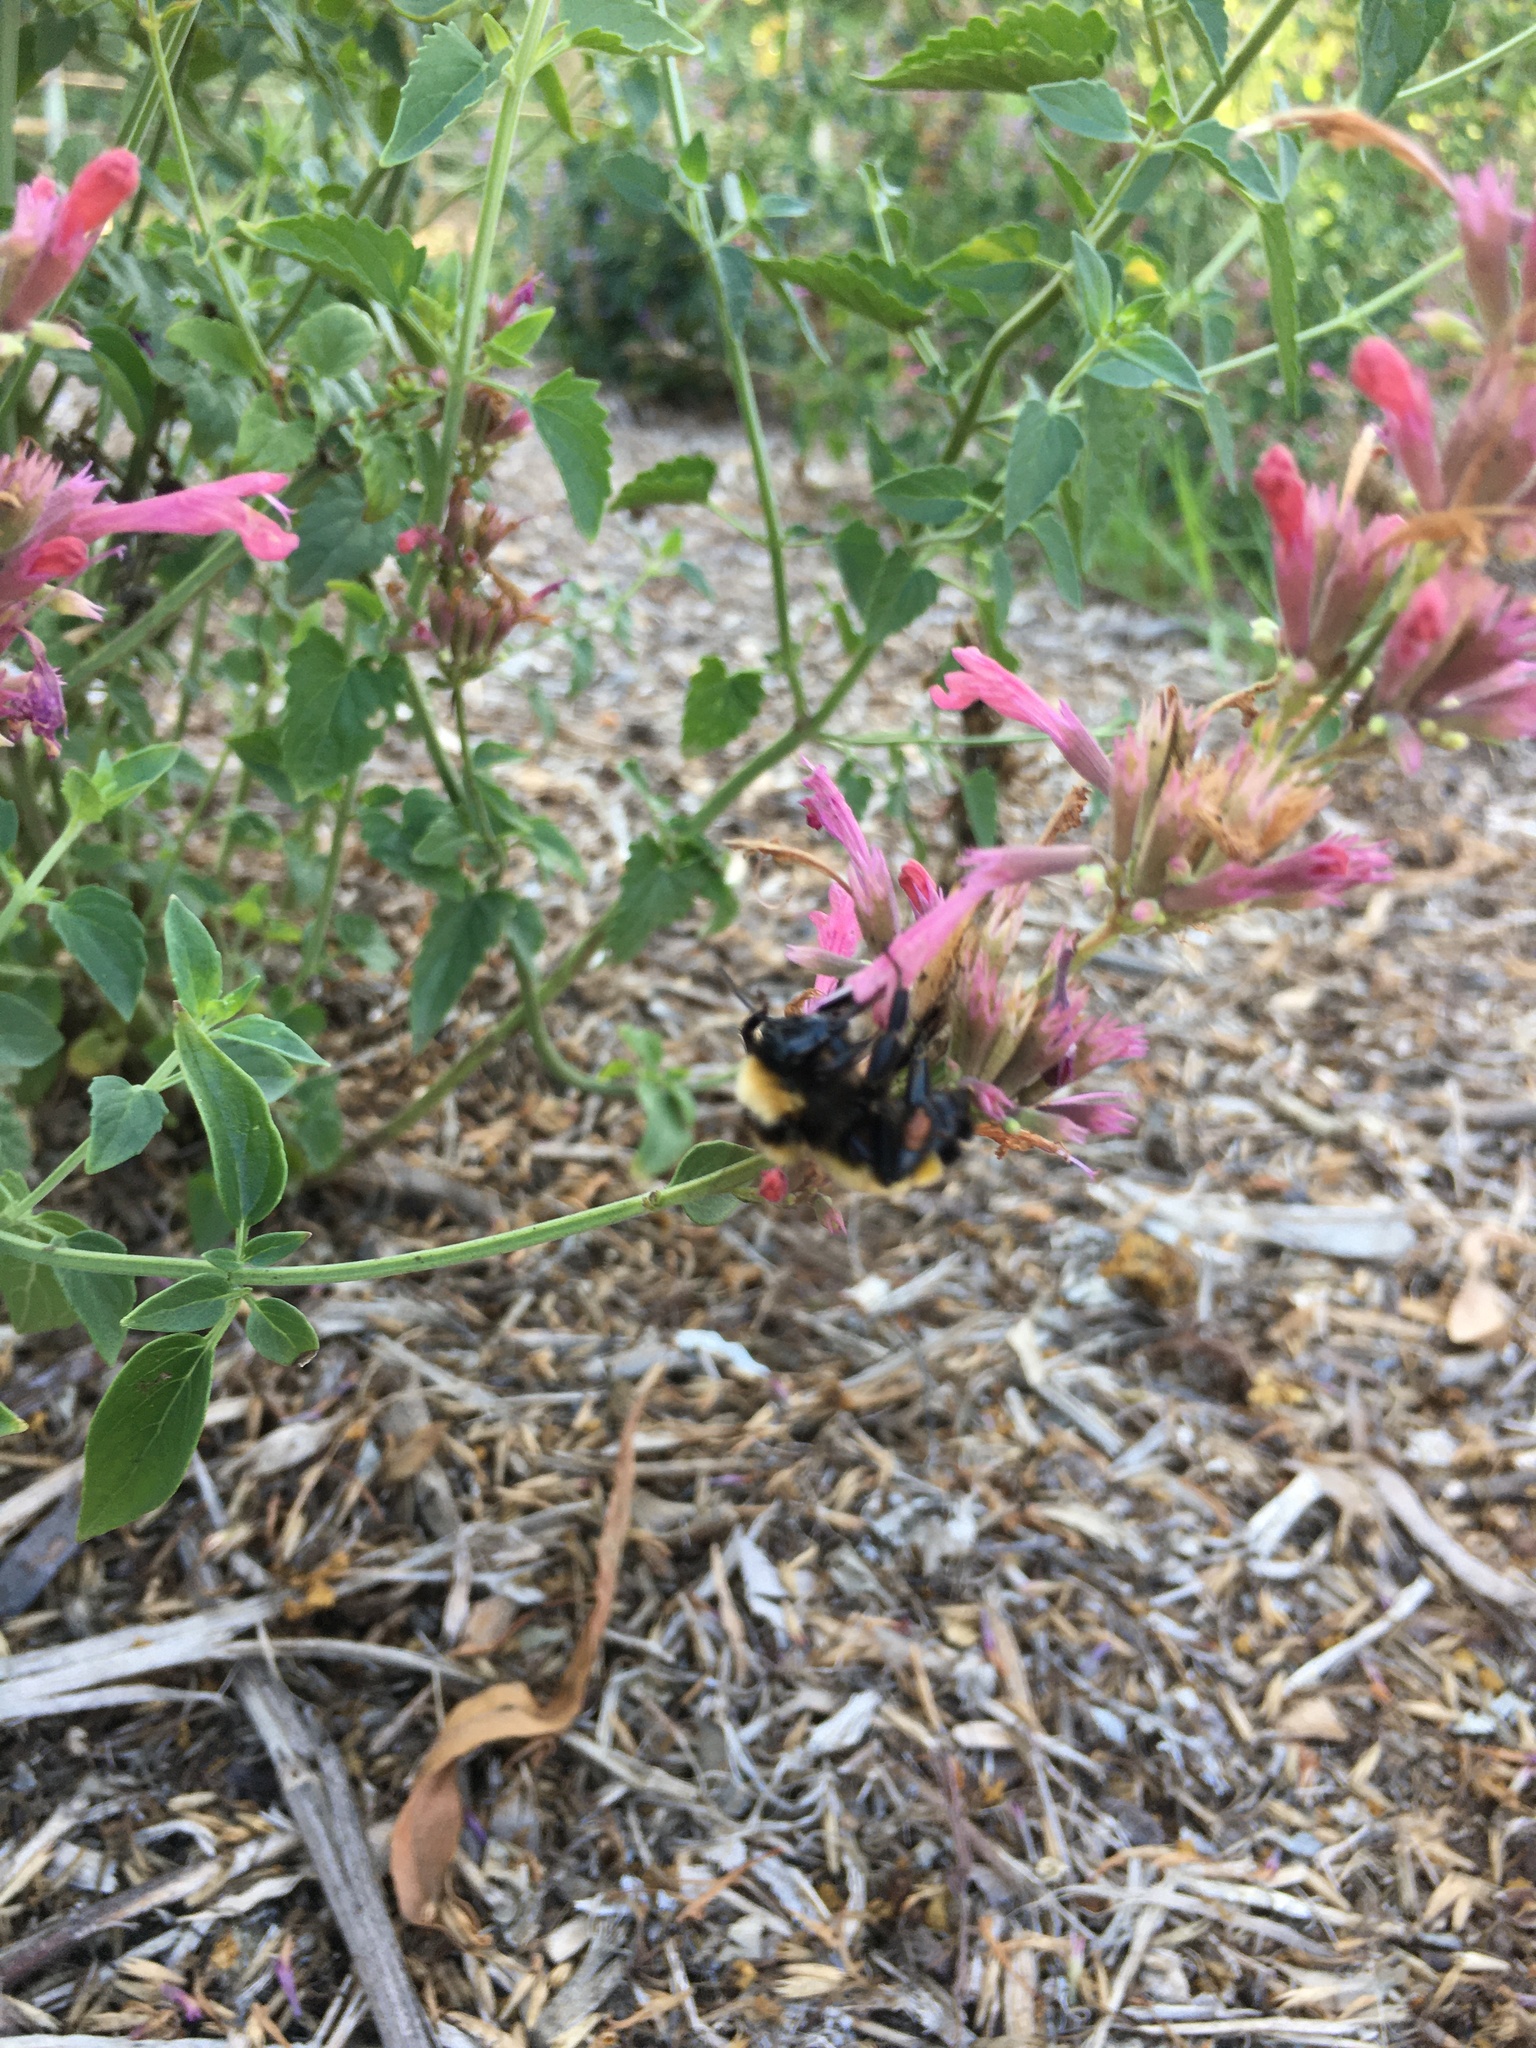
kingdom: Animalia
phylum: Arthropoda
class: Insecta
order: Hymenoptera
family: Apidae
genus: Bombus
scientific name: Bombus sonorus
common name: Sonoran bumble bee
